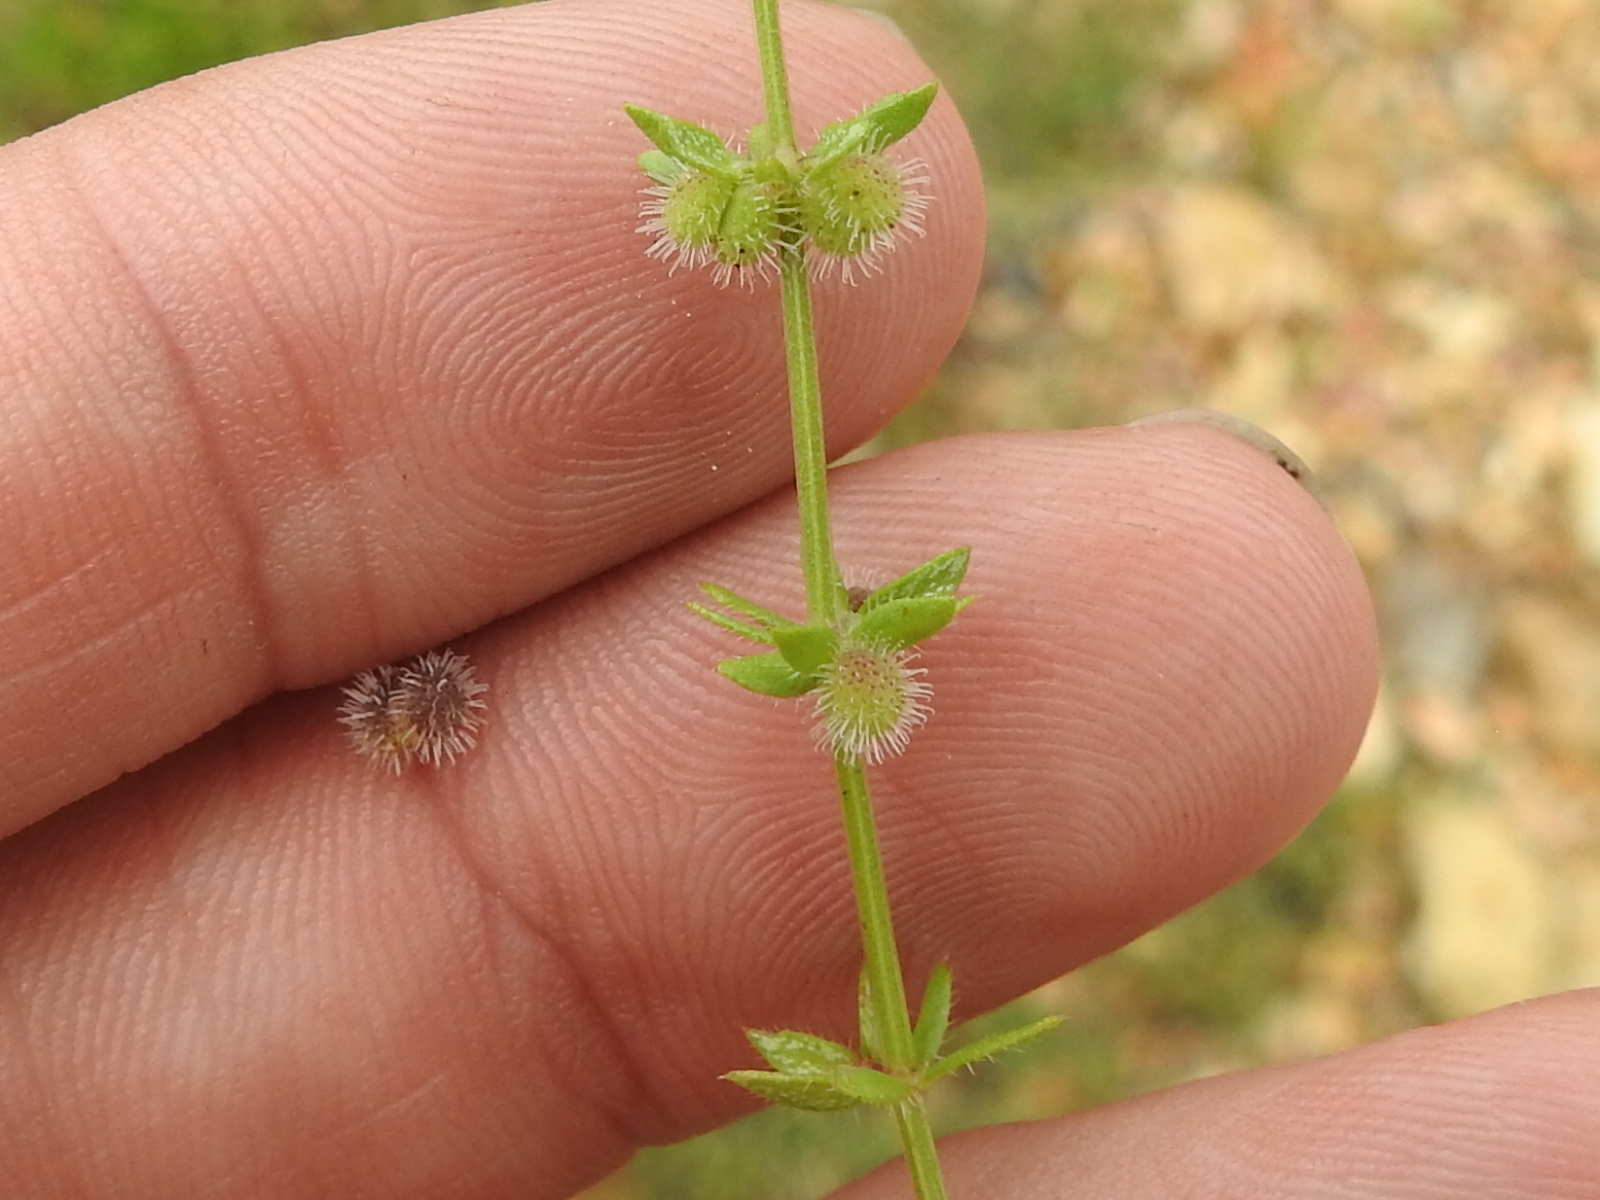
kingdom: Plantae
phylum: Tracheophyta
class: Magnoliopsida
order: Gentianales
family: Rubiaceae
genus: Galium
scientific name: Galium virgatum
